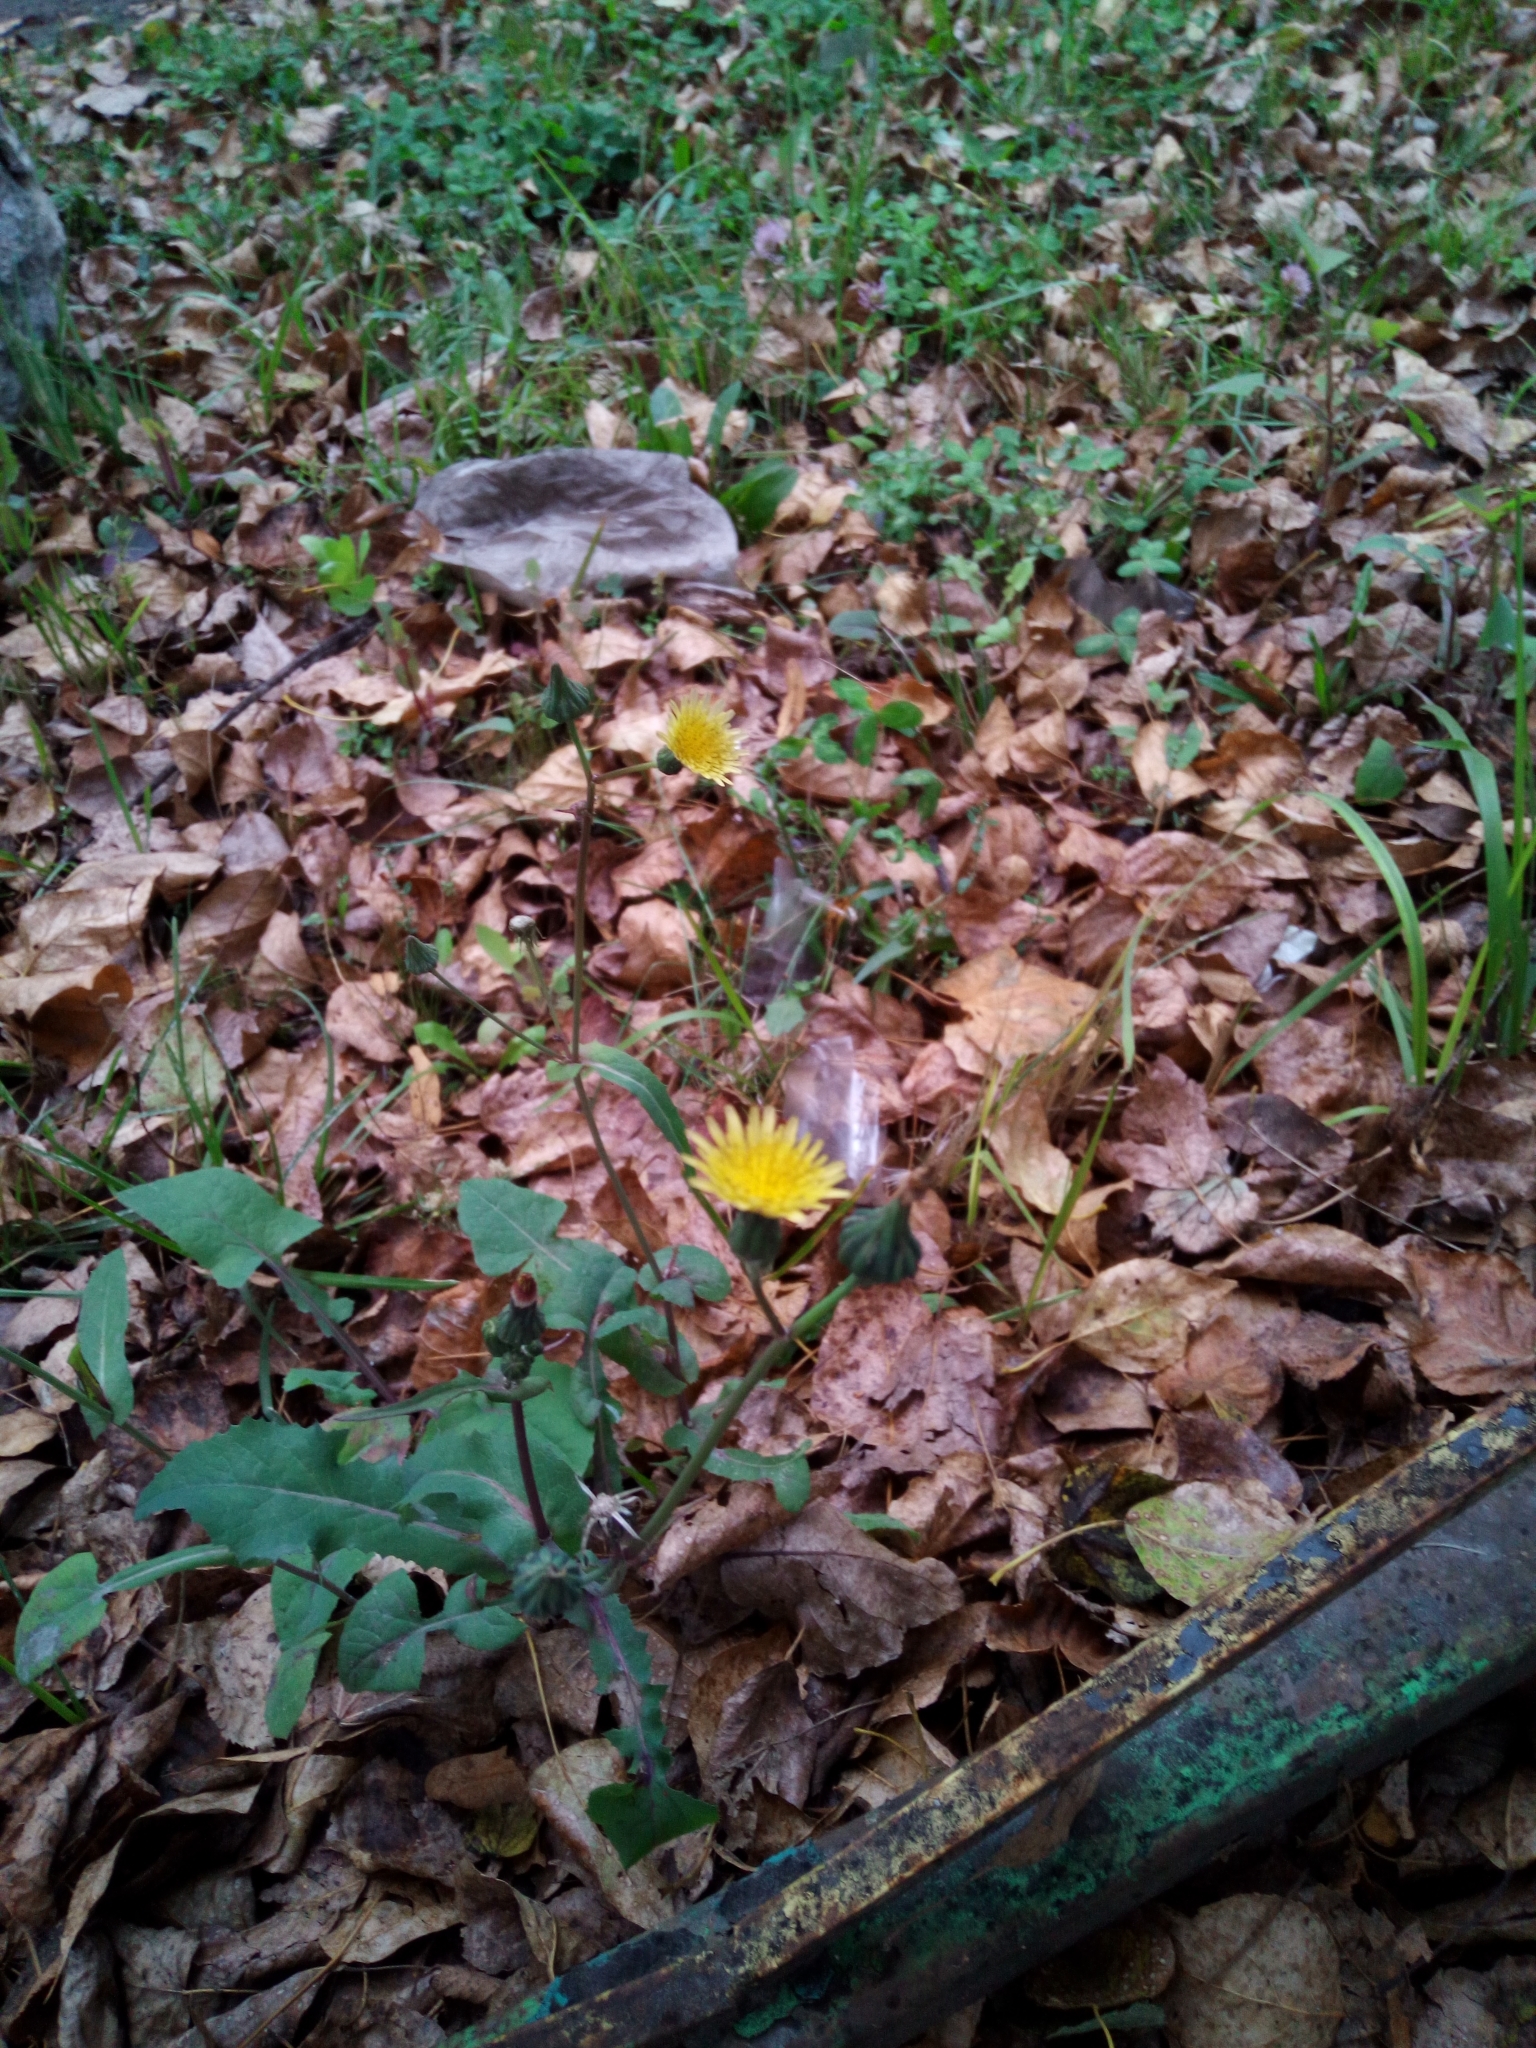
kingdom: Plantae
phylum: Tracheophyta
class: Magnoliopsida
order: Asterales
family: Asteraceae
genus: Sonchus
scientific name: Sonchus oleraceus
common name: Common sowthistle
